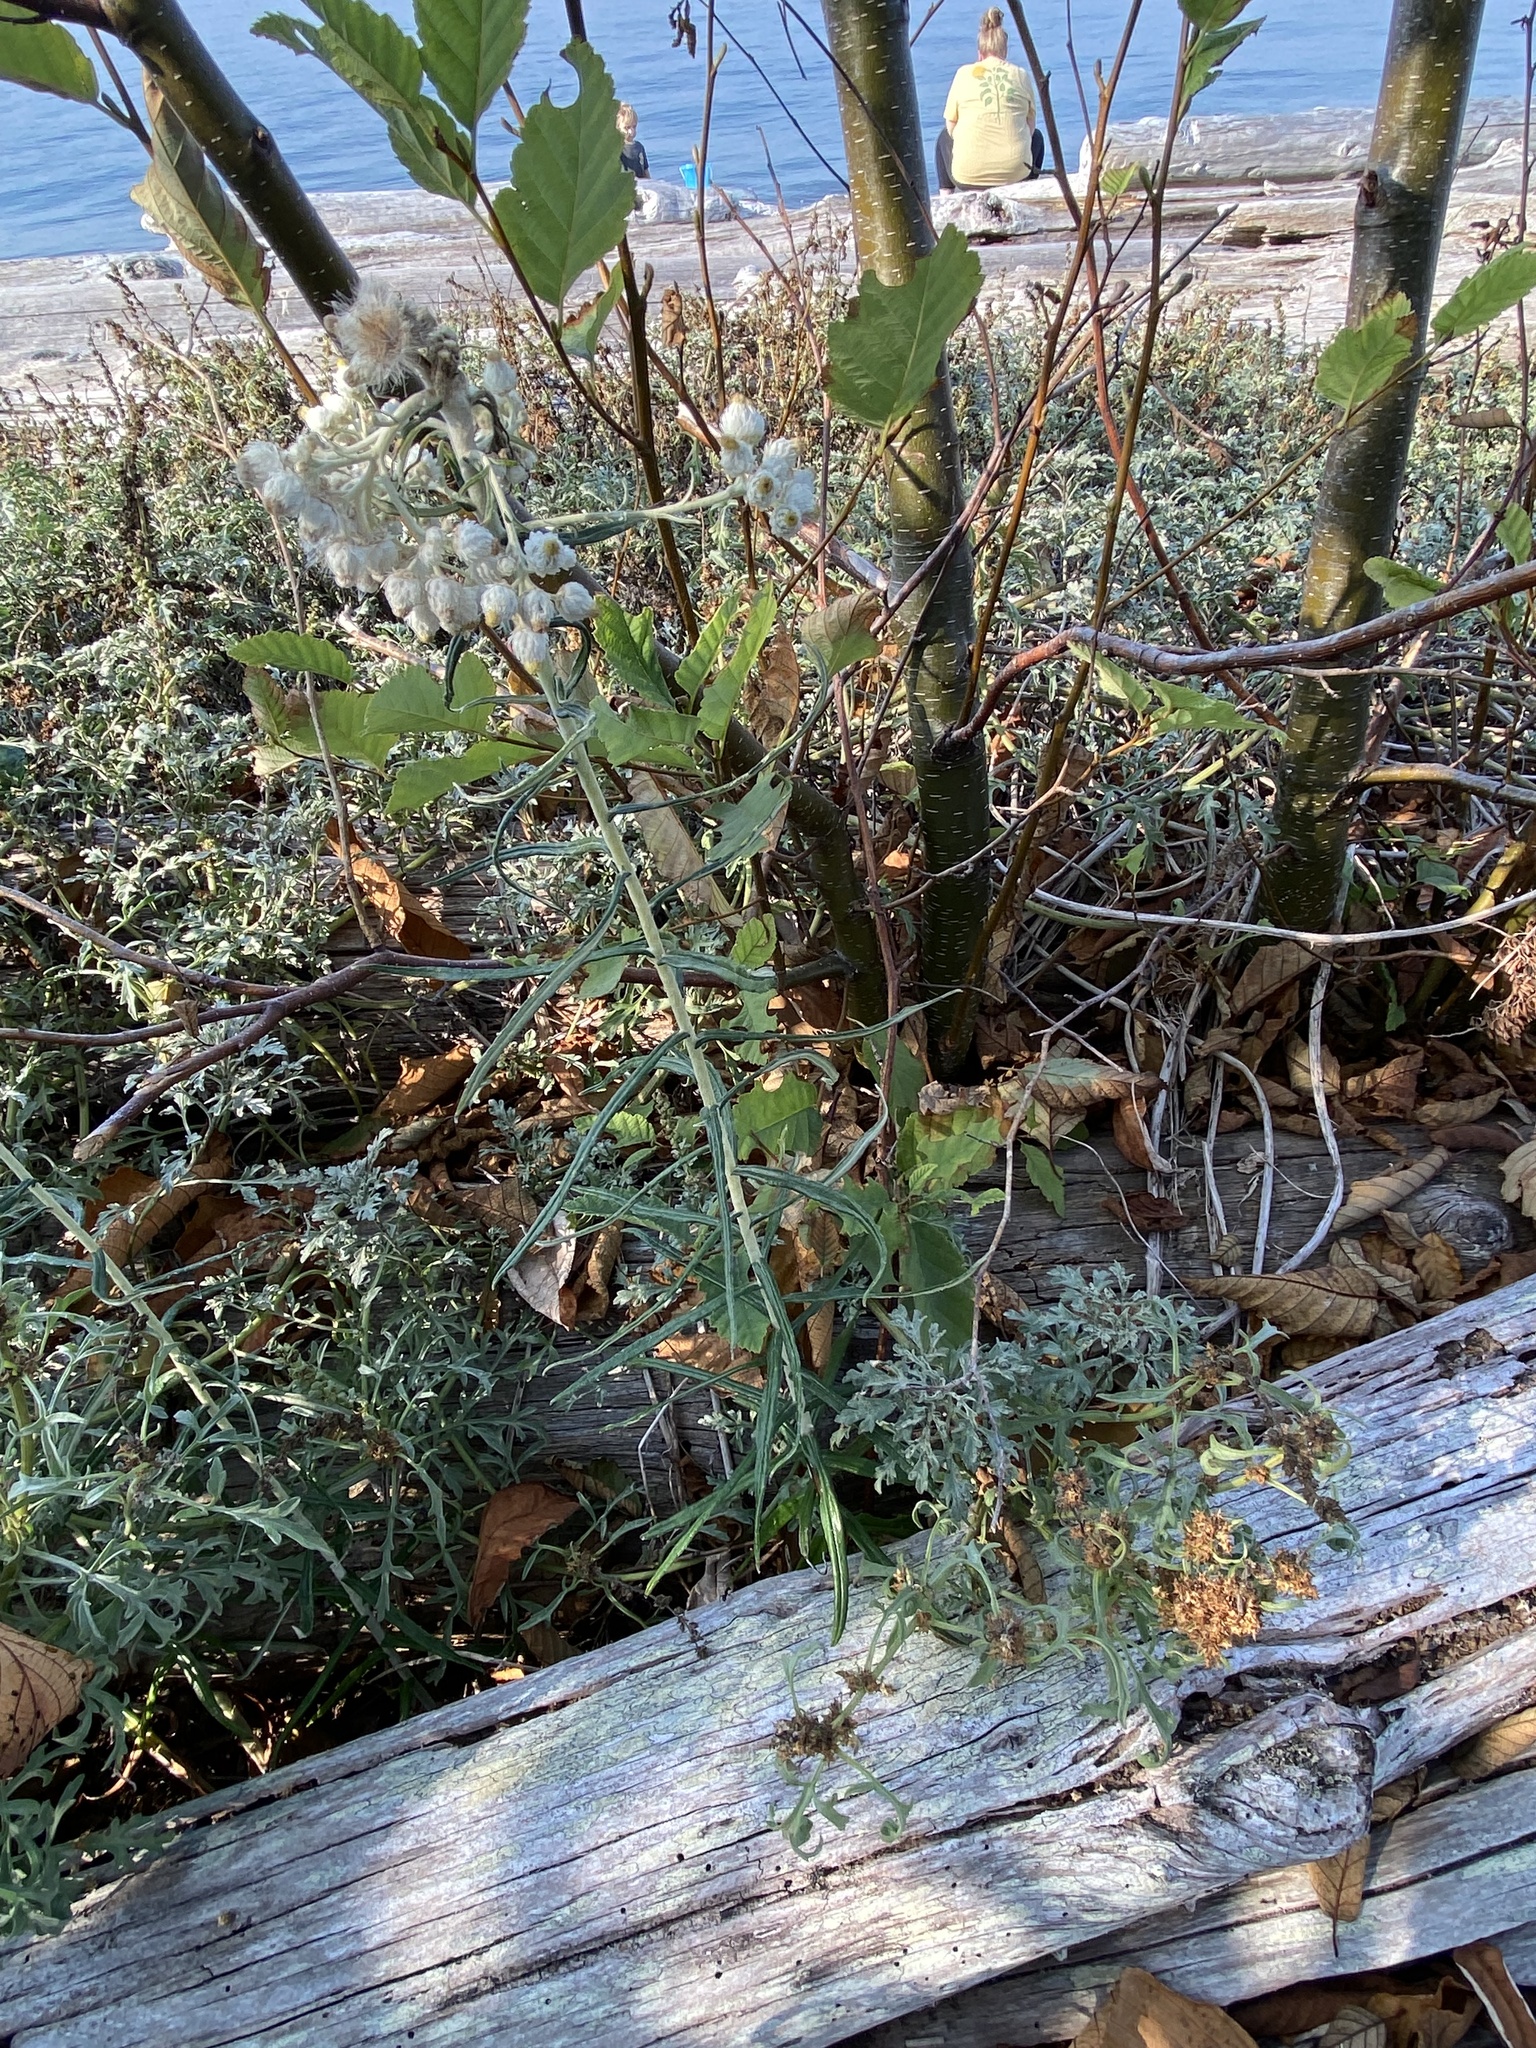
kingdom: Plantae
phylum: Tracheophyta
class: Magnoliopsida
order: Asterales
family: Asteraceae
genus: Anaphalis
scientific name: Anaphalis margaritacea
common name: Pearly everlasting
